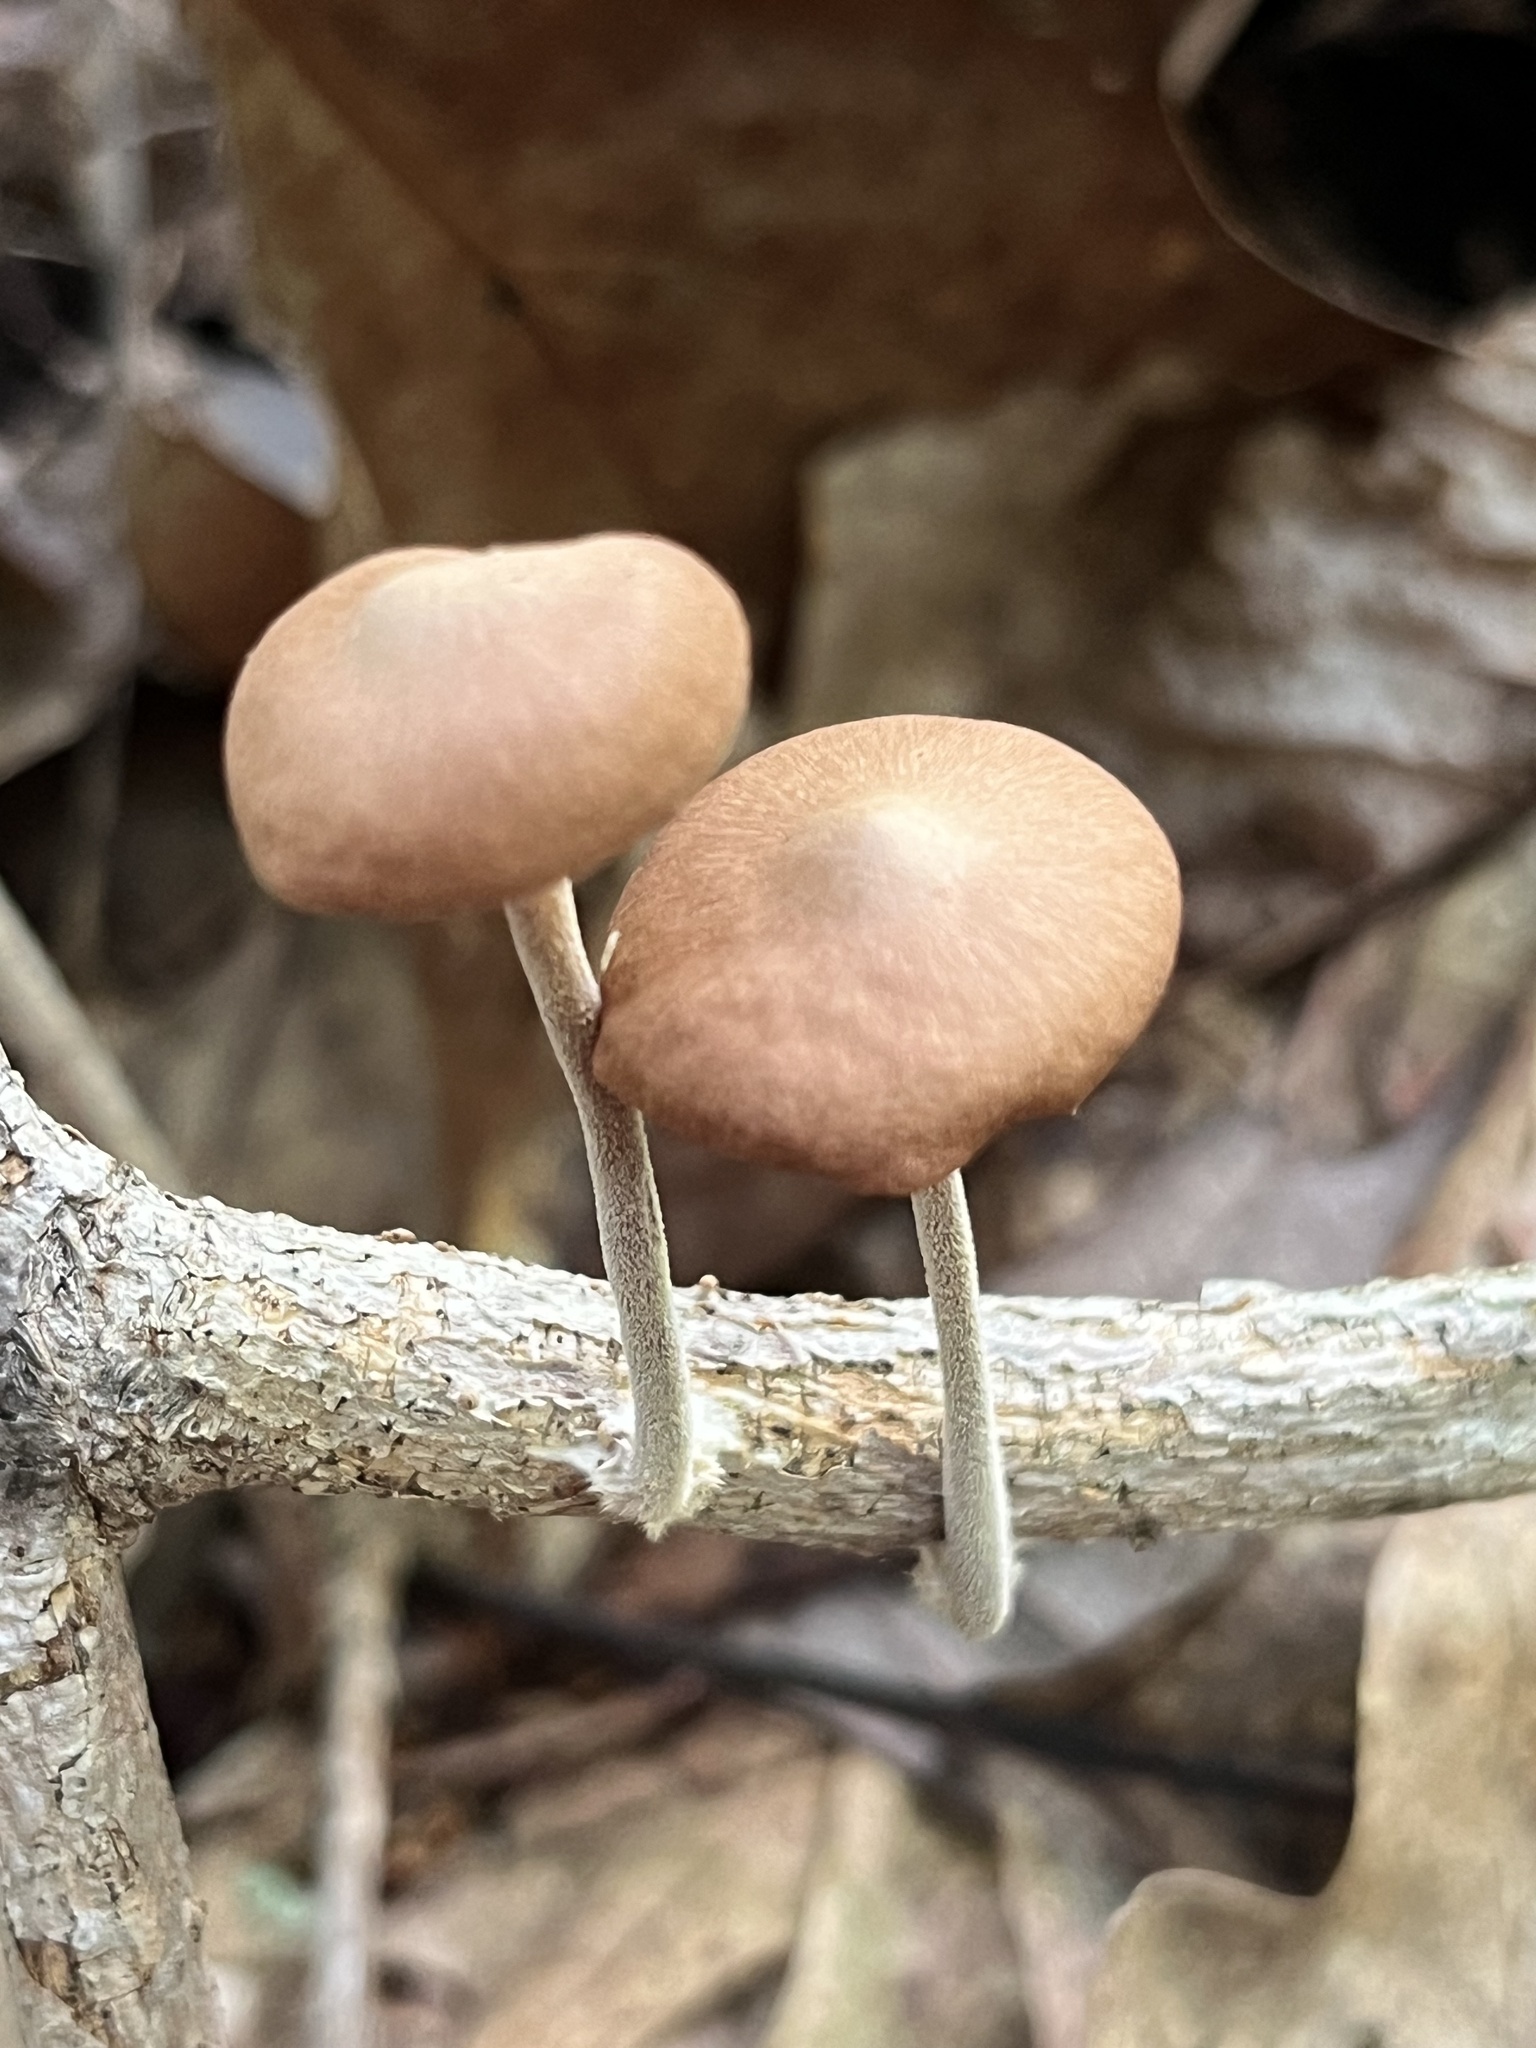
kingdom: Fungi
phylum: Basidiomycota
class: Agaricomycetes
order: Agaricales
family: Omphalotaceae
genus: Collybiopsis
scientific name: Collybiopsis dichroa
